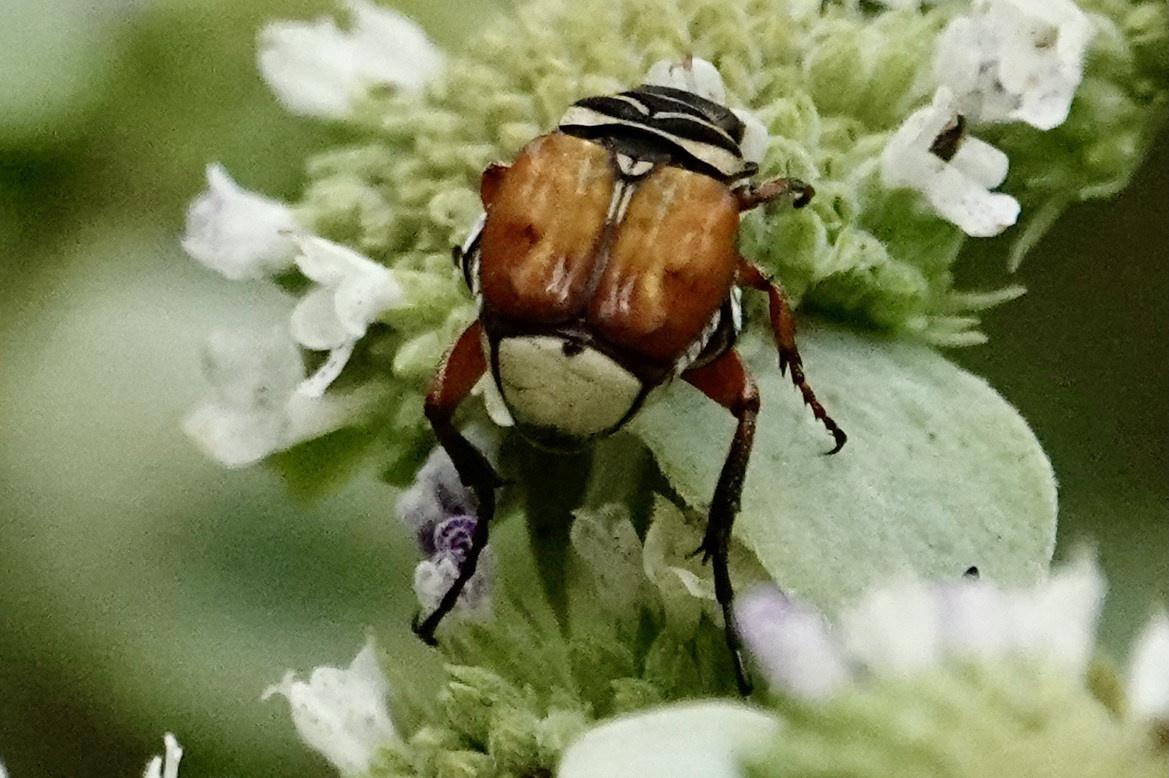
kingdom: Animalia
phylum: Arthropoda
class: Insecta
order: Coleoptera
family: Scarabaeidae
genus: Trigonopeltastes
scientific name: Trigonopeltastes delta
